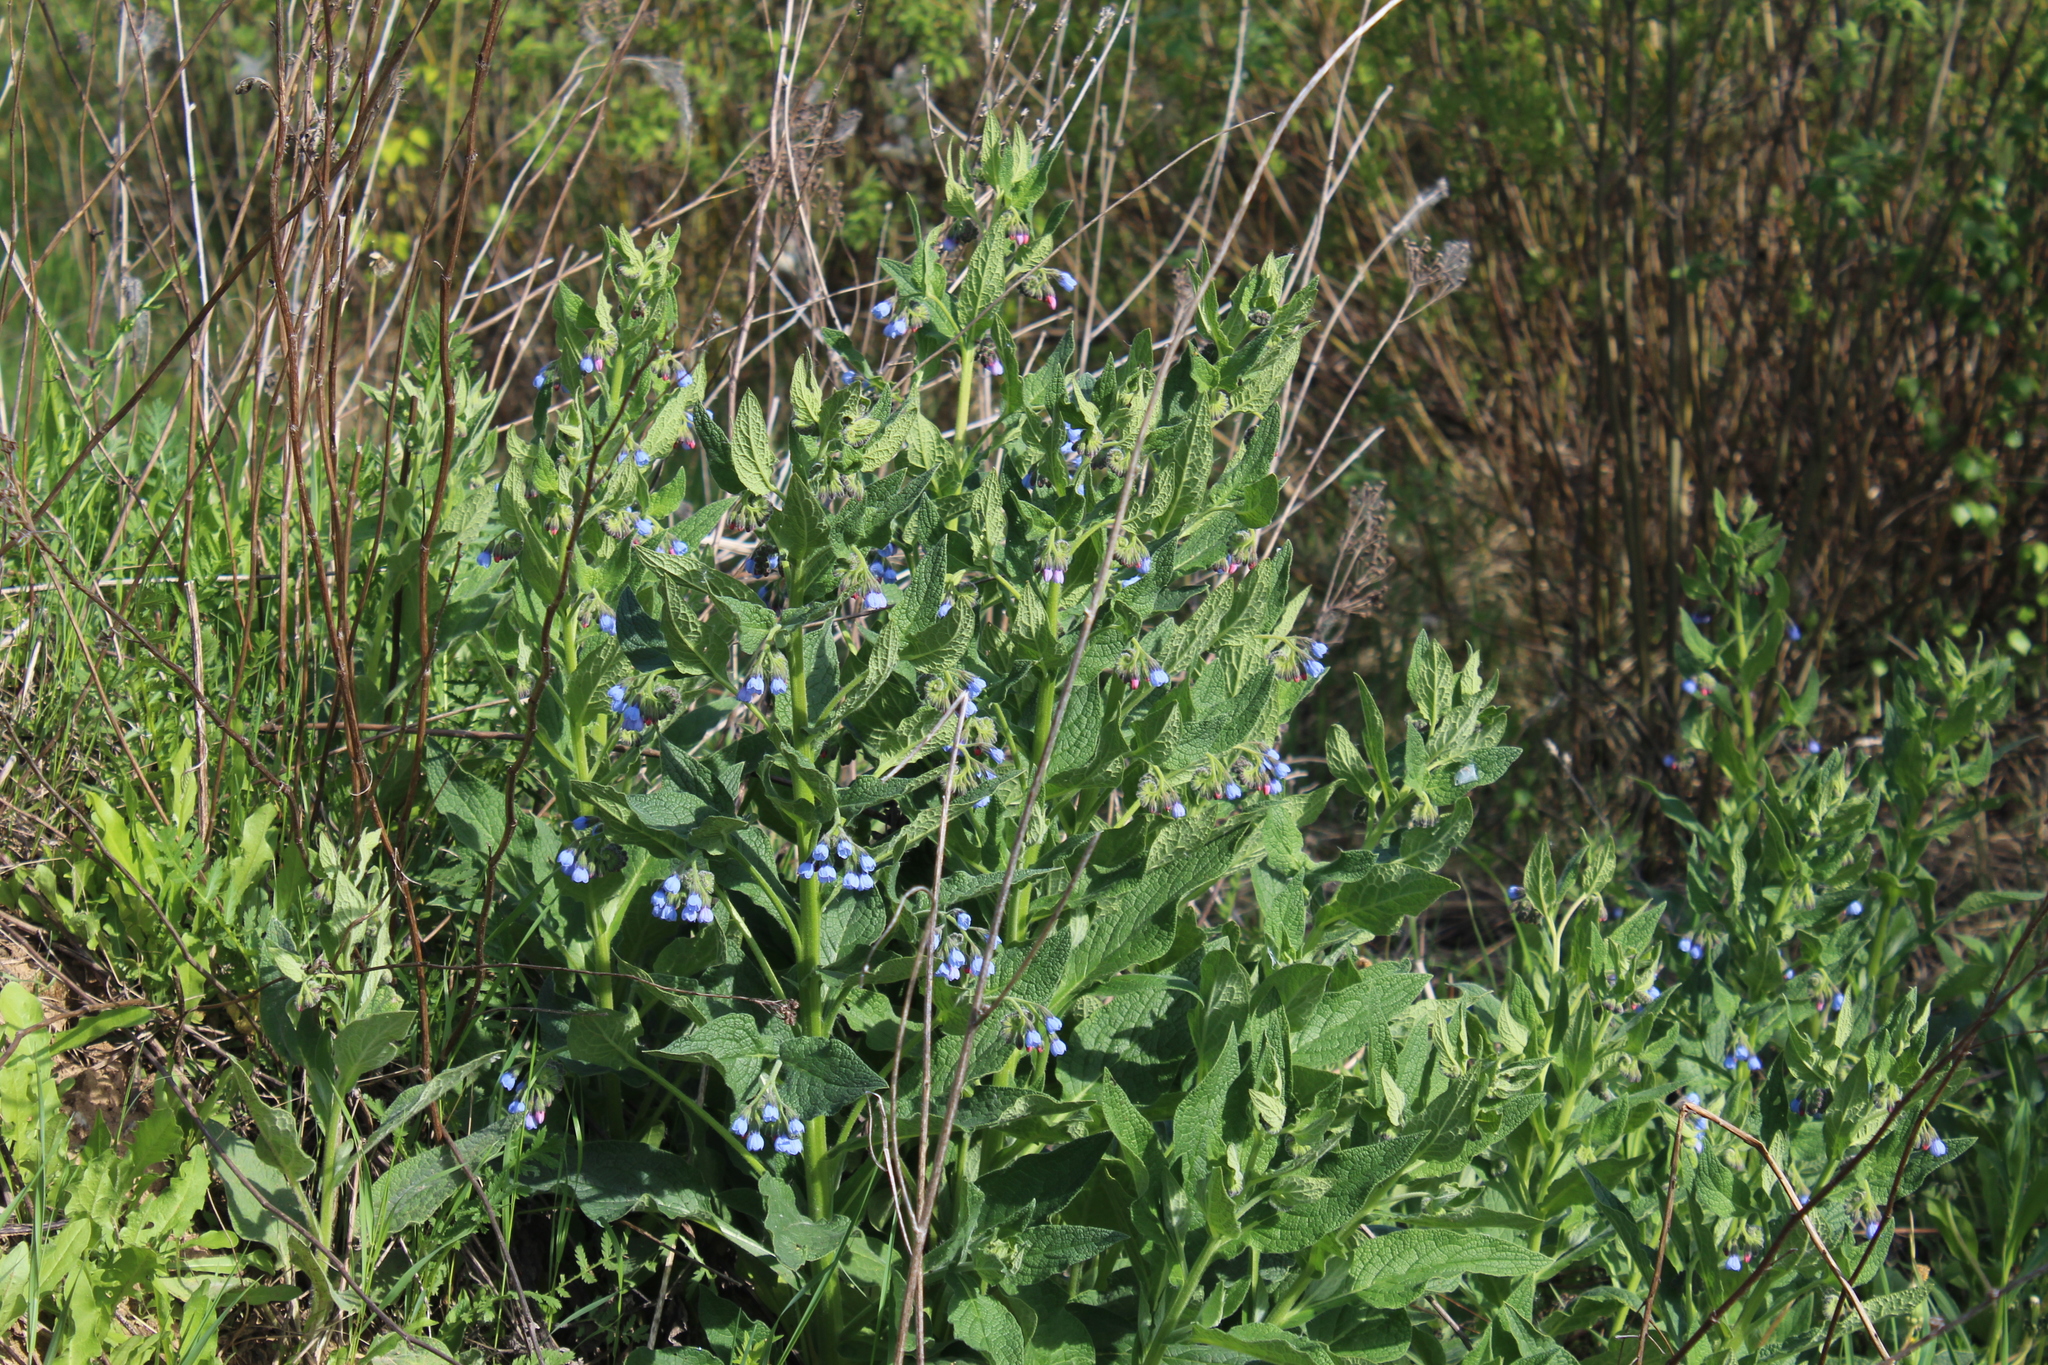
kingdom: Plantae
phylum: Tracheophyta
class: Magnoliopsida
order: Boraginales
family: Boraginaceae
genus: Symphytum
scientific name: Symphytum caucasicum
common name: Caucasian comfrey
